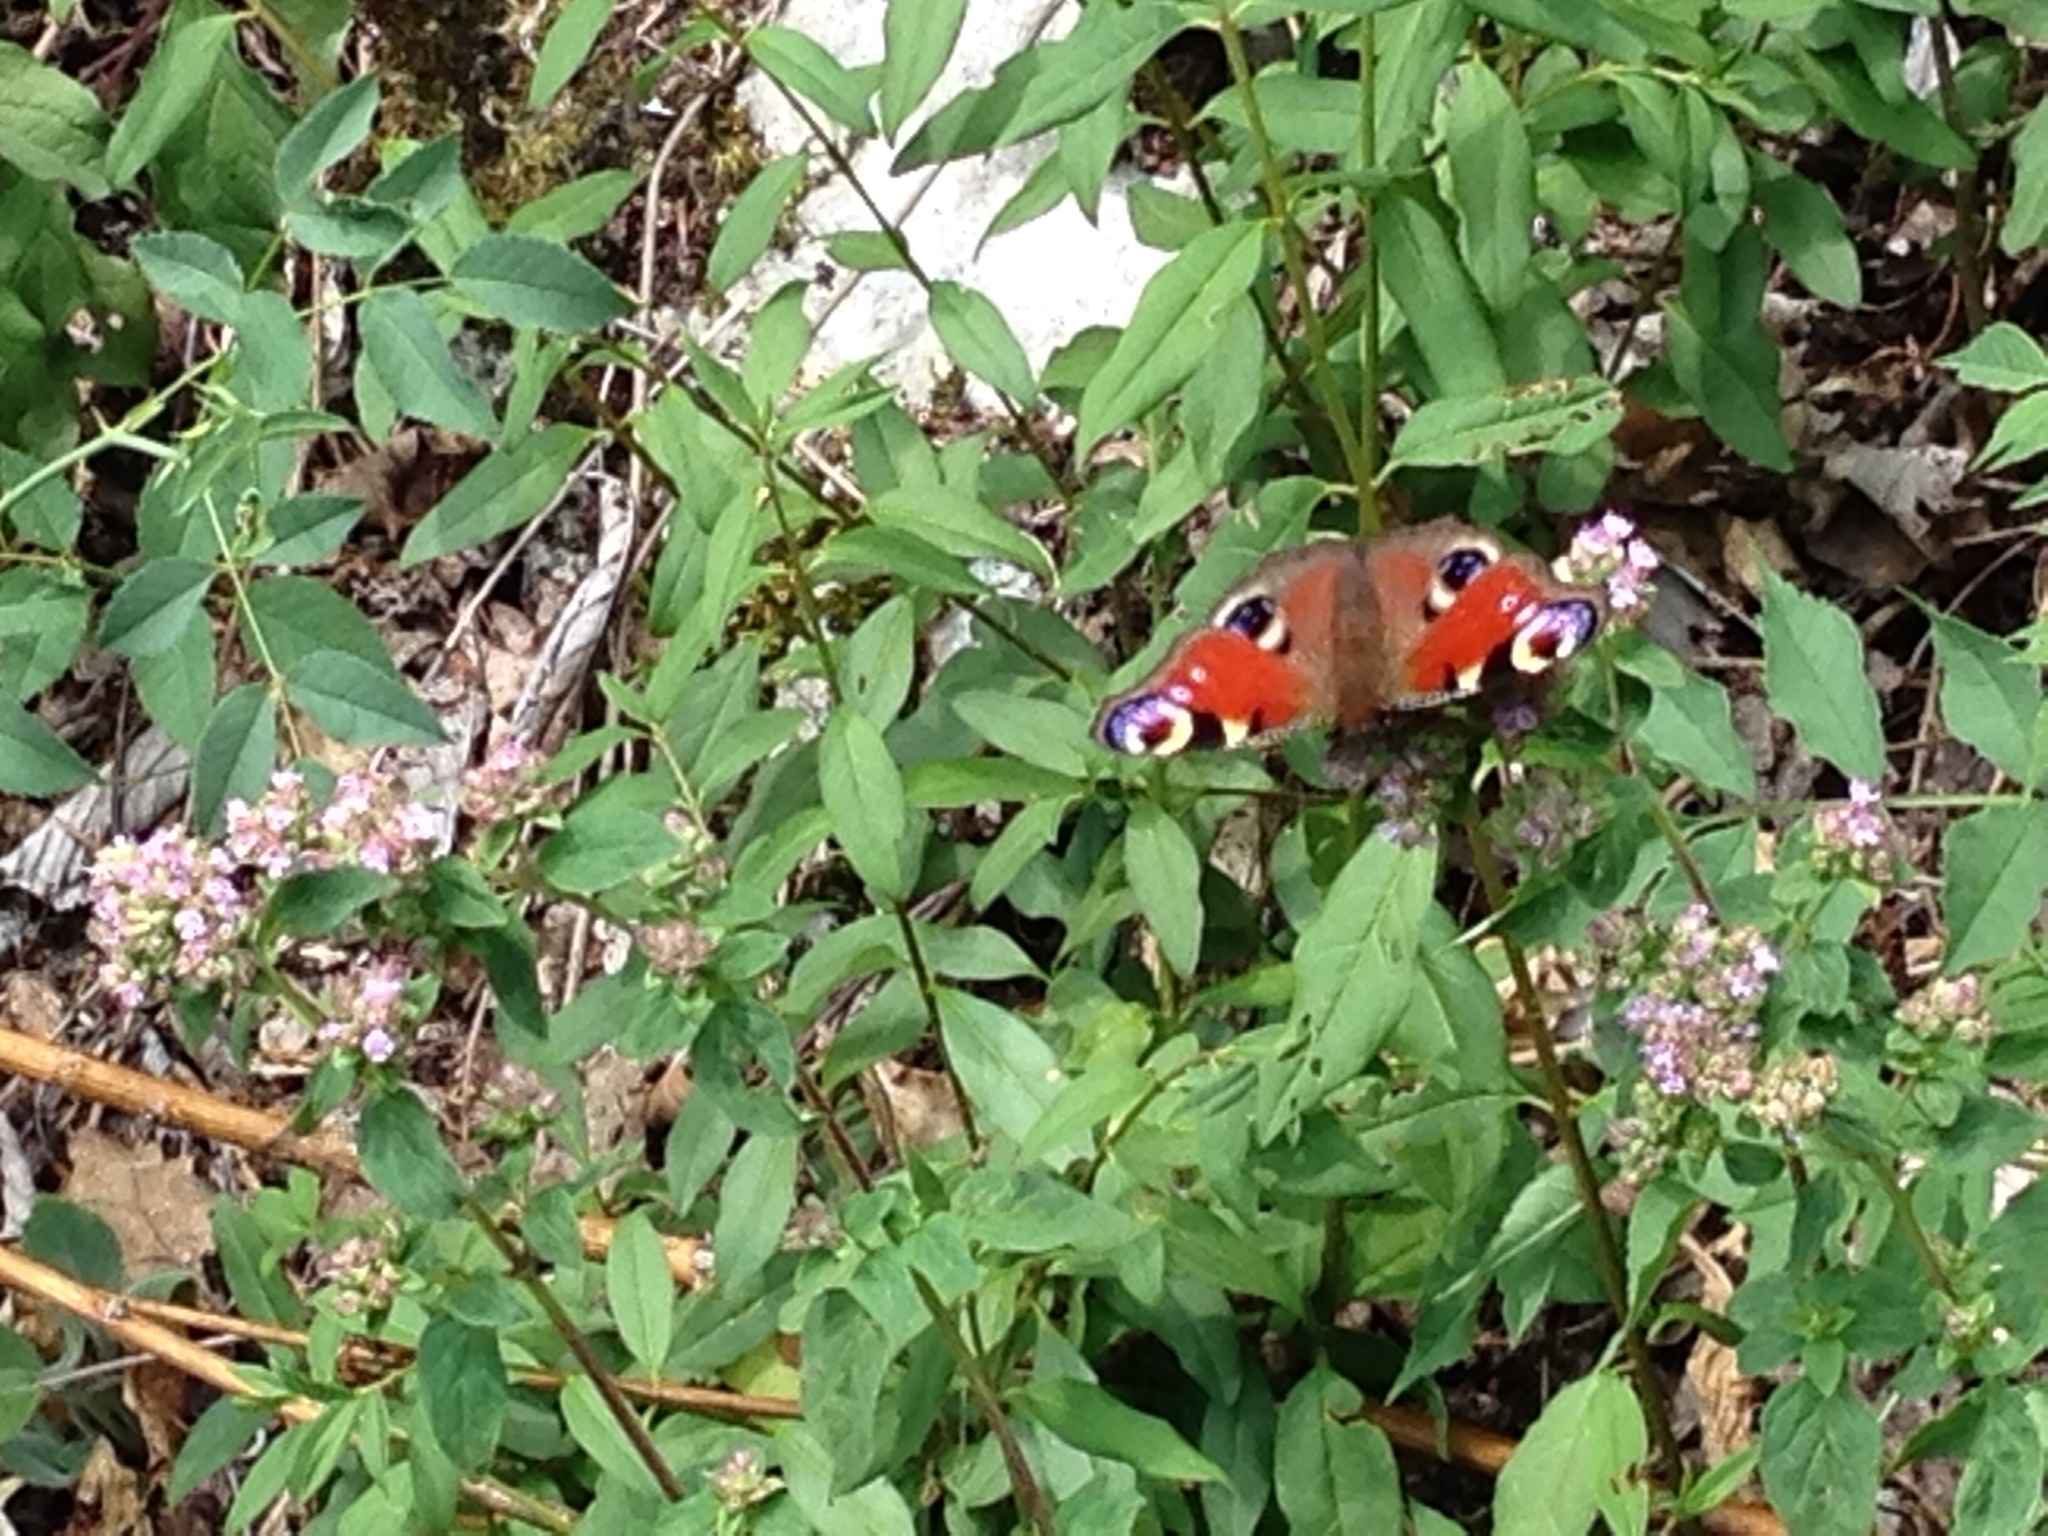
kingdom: Animalia
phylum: Arthropoda
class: Insecta
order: Lepidoptera
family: Nymphalidae
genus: Aglais
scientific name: Aglais io
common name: Peacock
